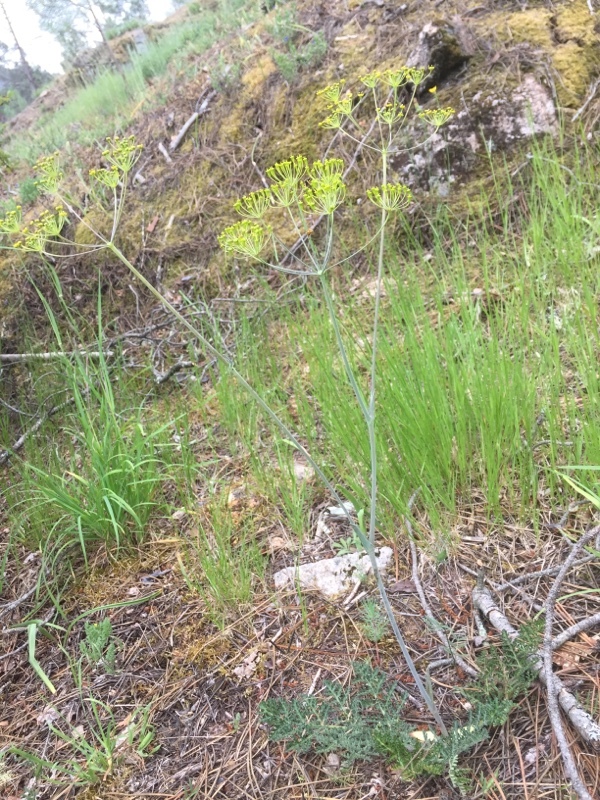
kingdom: Plantae
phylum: Tracheophyta
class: Magnoliopsida
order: Apiales
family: Apiaceae
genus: Thapsia
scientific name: Thapsia minor
